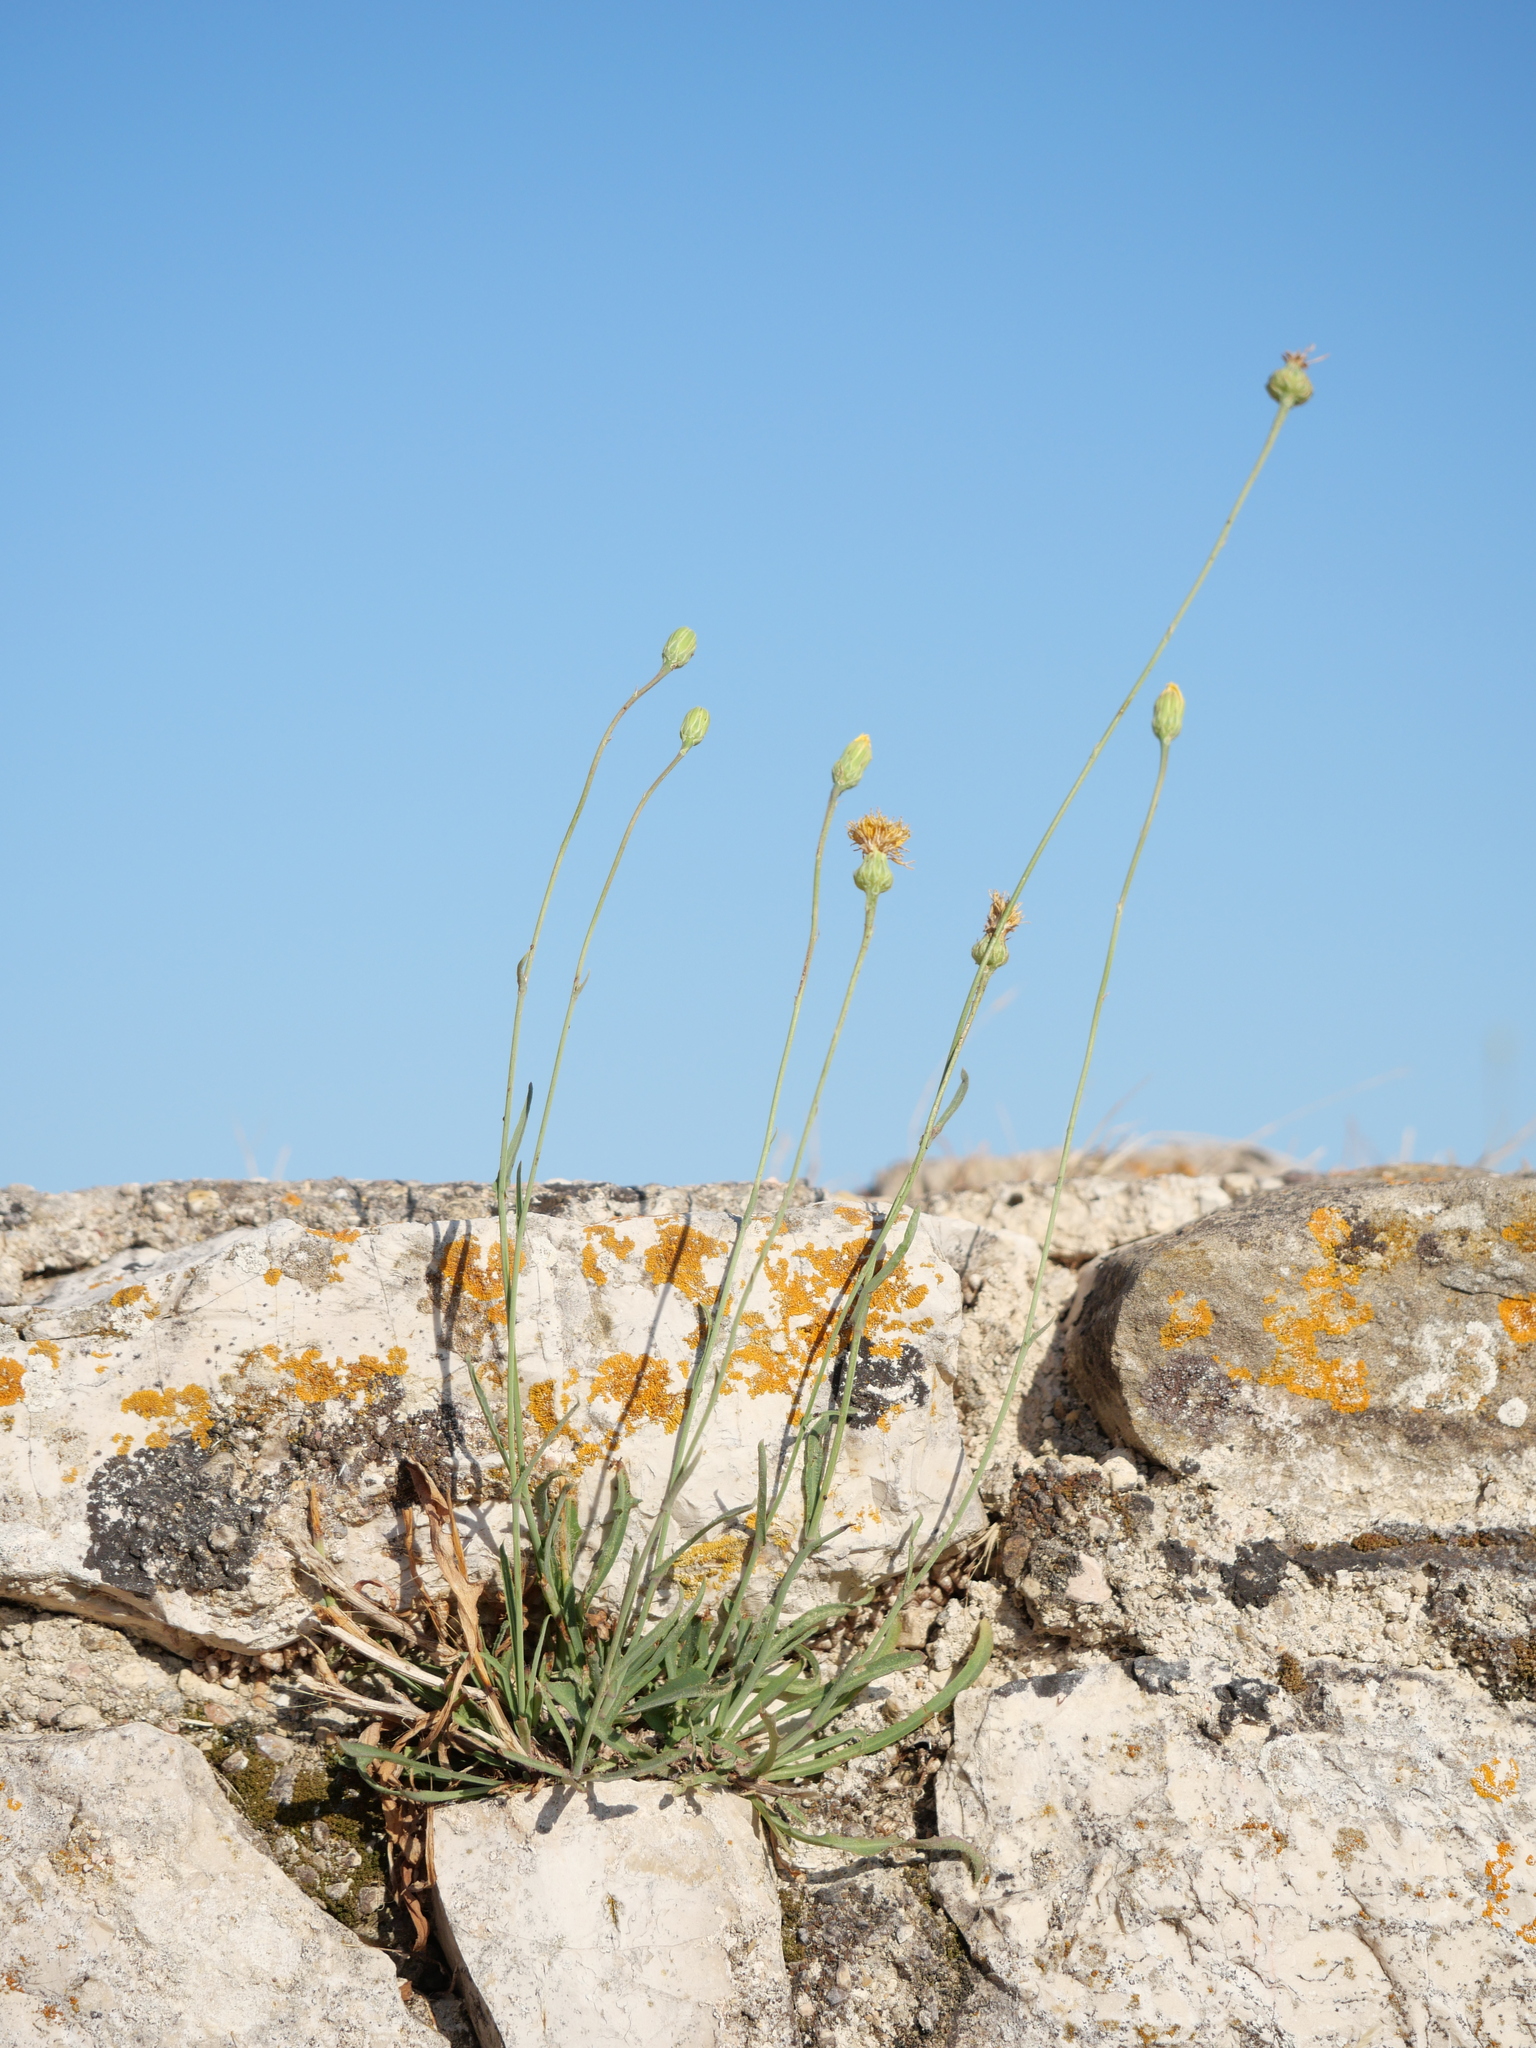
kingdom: Plantae
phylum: Tracheophyta
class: Magnoliopsida
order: Asterales
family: Asteraceae
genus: Reichardia
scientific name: Reichardia picroides
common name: Common brighteyes
